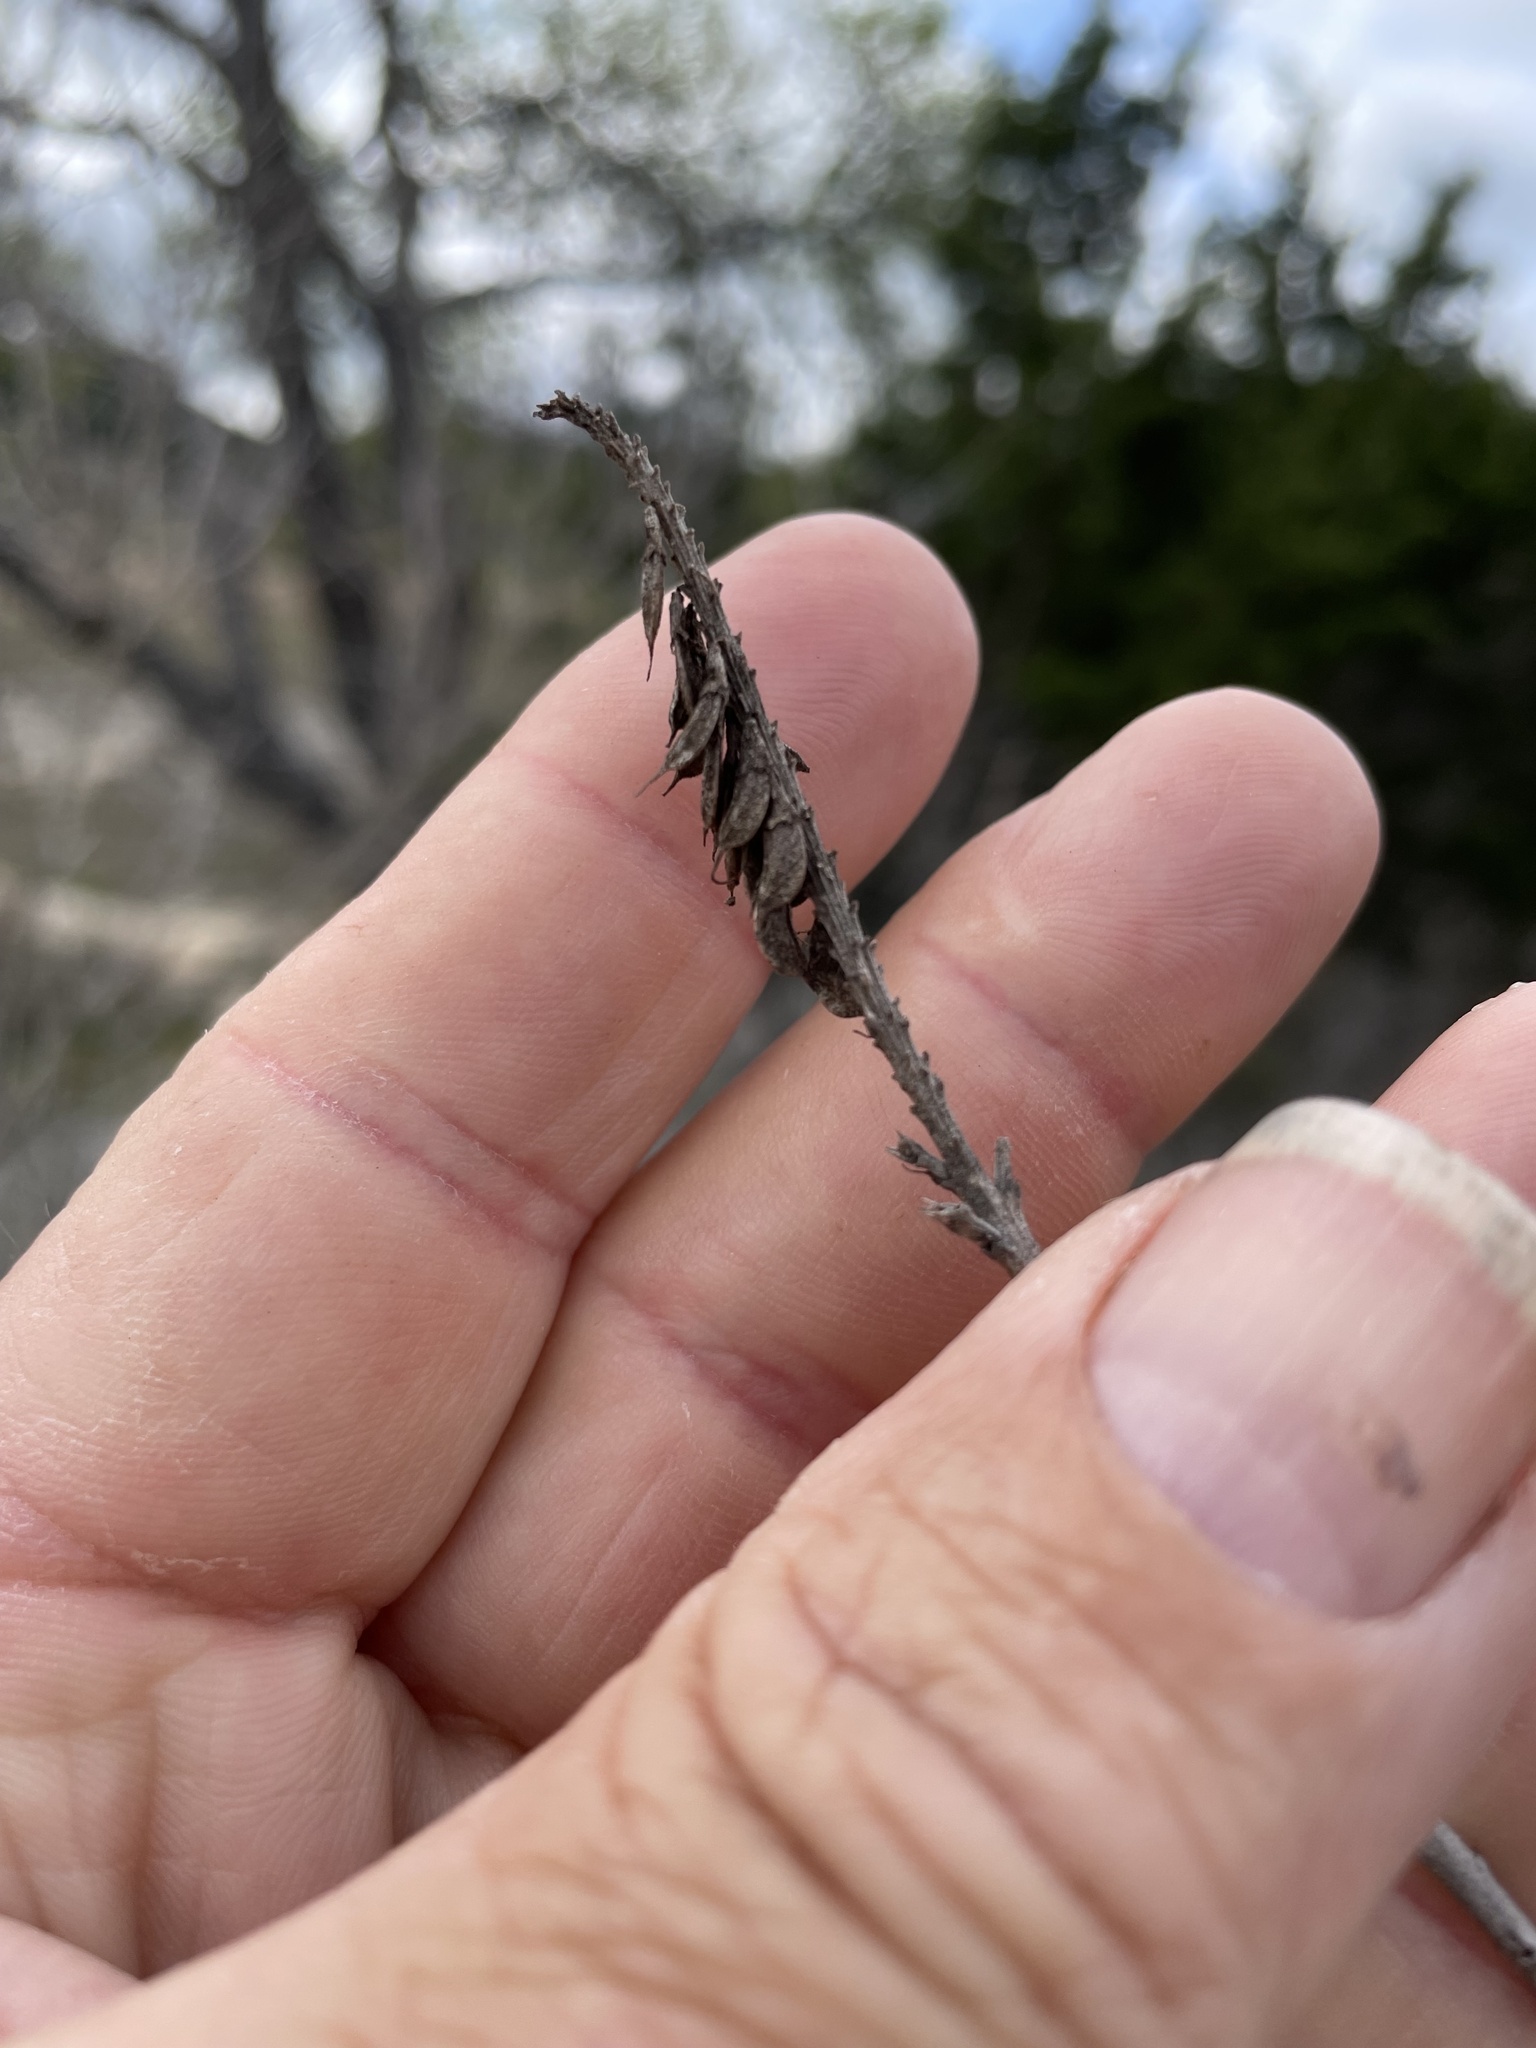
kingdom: Plantae
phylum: Tracheophyta
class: Magnoliopsida
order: Fabales
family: Fabaceae
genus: Eysenhardtia
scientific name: Eysenhardtia texana
